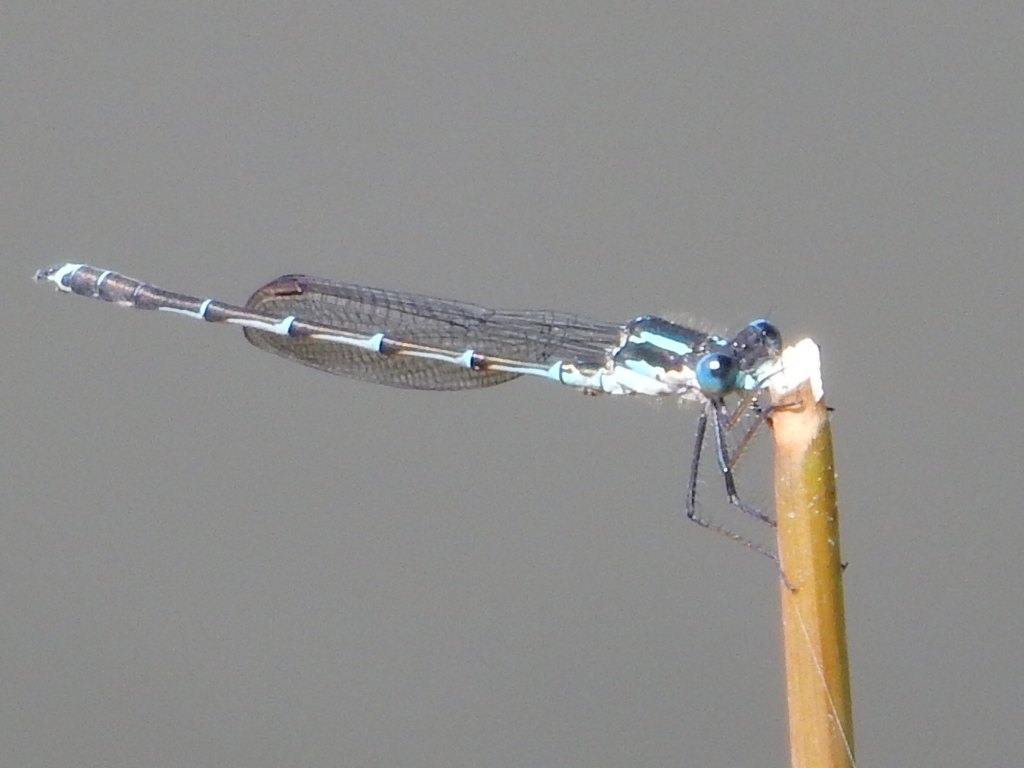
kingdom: Animalia
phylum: Arthropoda
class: Insecta
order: Odonata
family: Lestidae
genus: Austrolestes
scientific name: Austrolestes colensonis
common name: Blue damselfly
